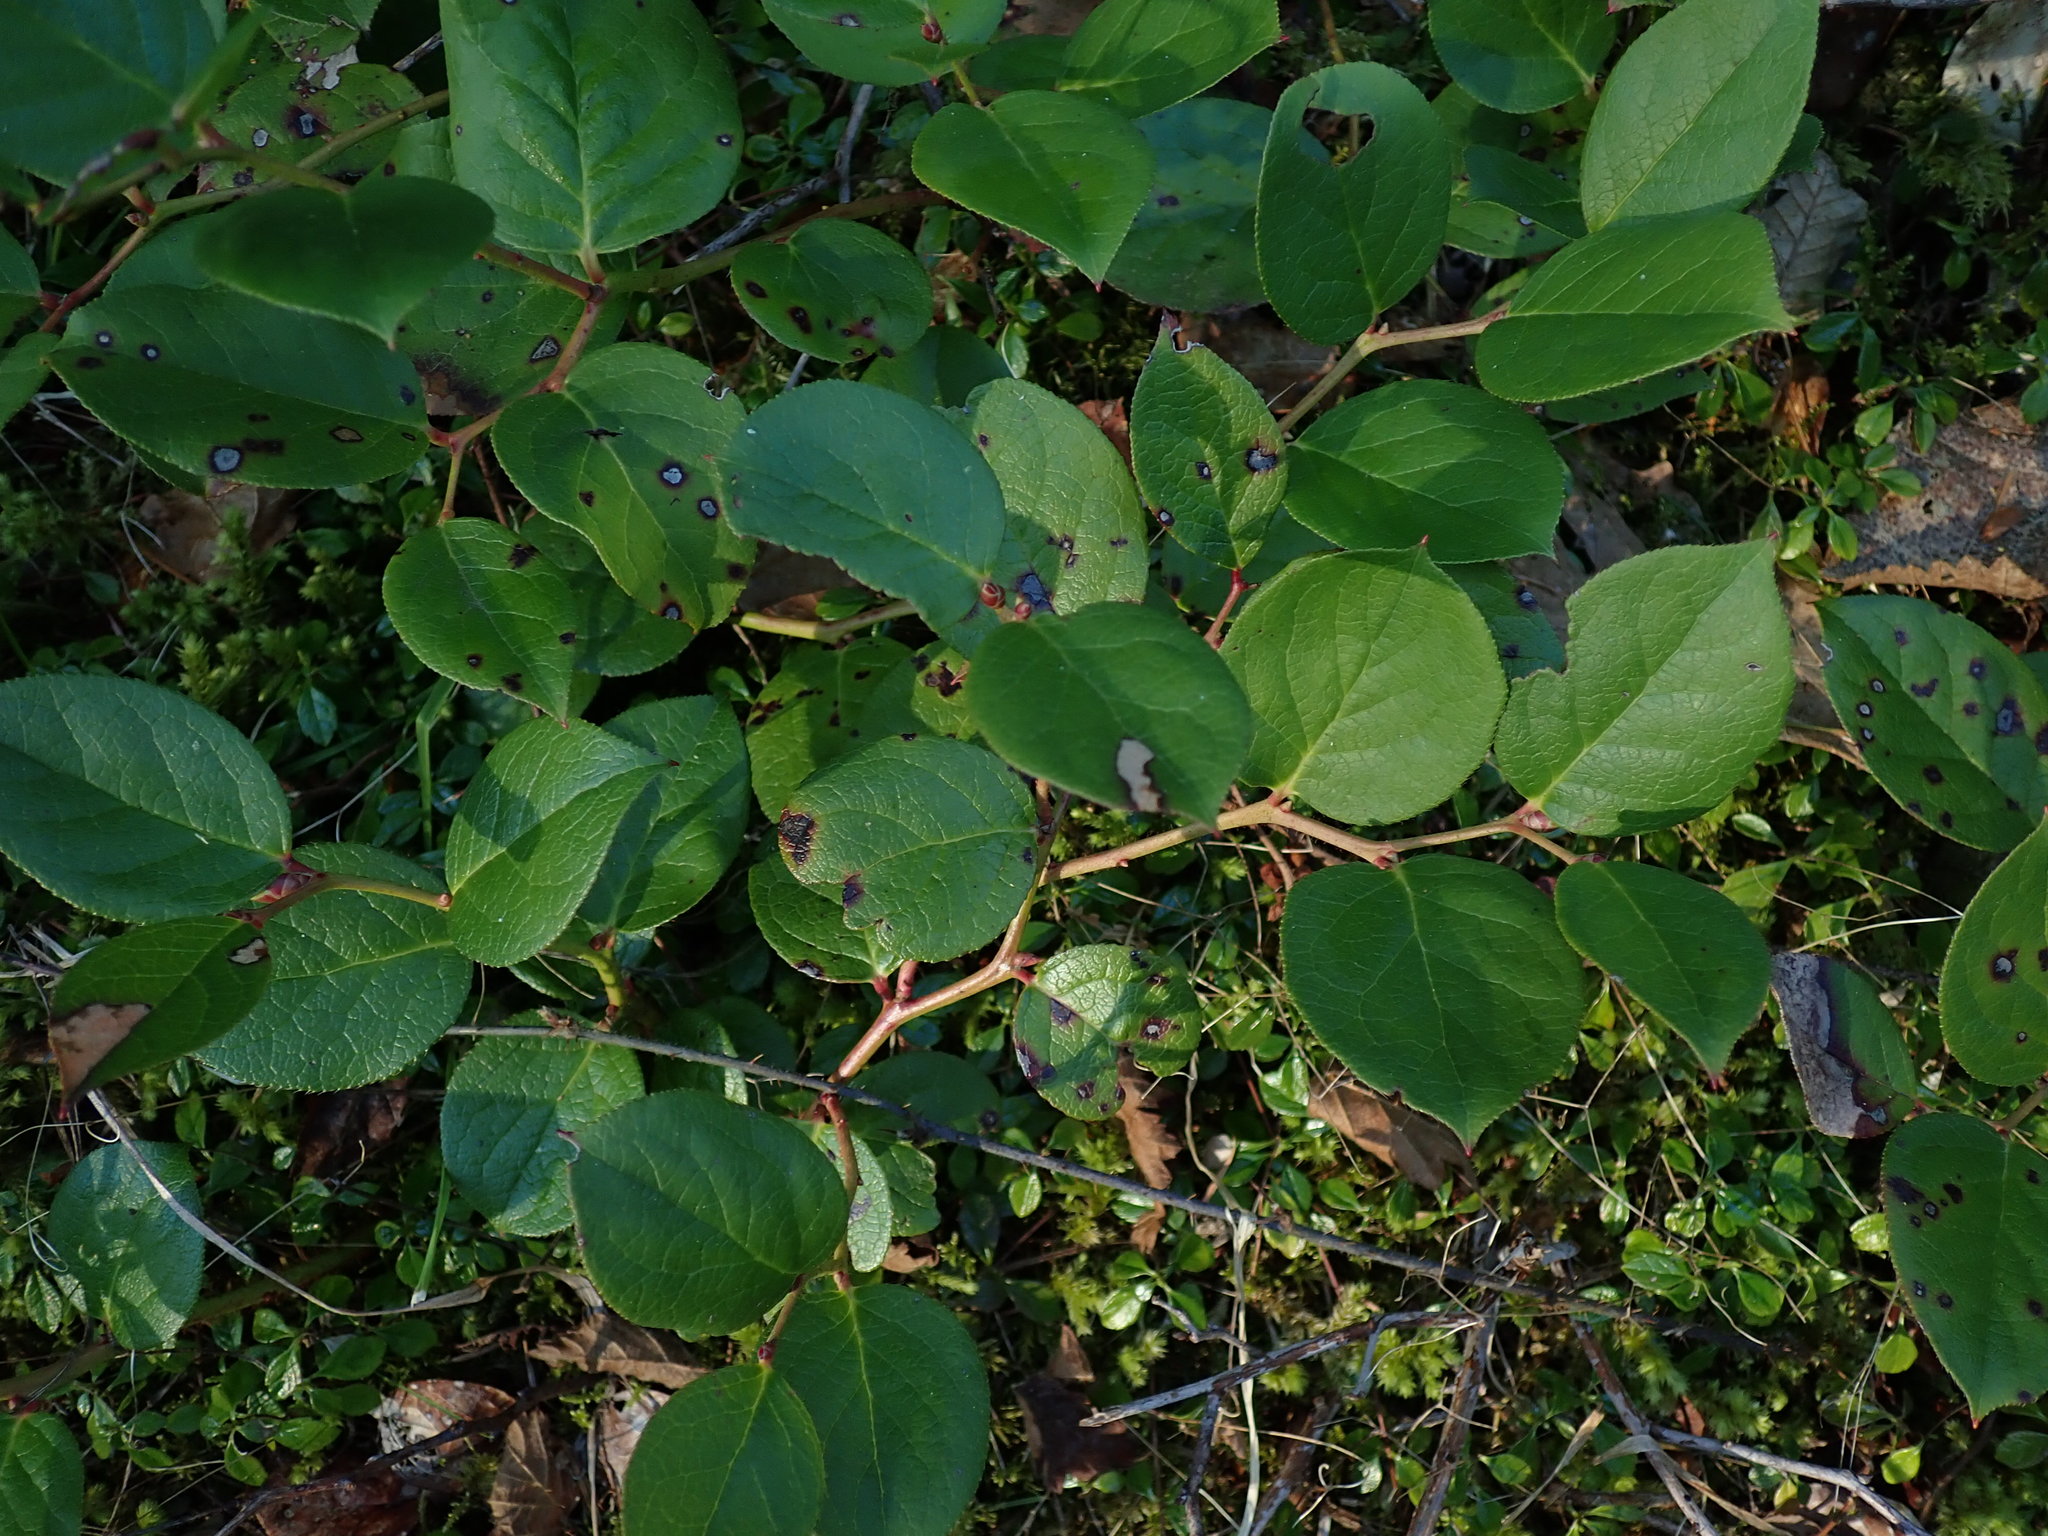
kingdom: Plantae
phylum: Tracheophyta
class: Magnoliopsida
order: Ericales
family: Ericaceae
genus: Gaultheria
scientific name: Gaultheria shallon
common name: Shallon
